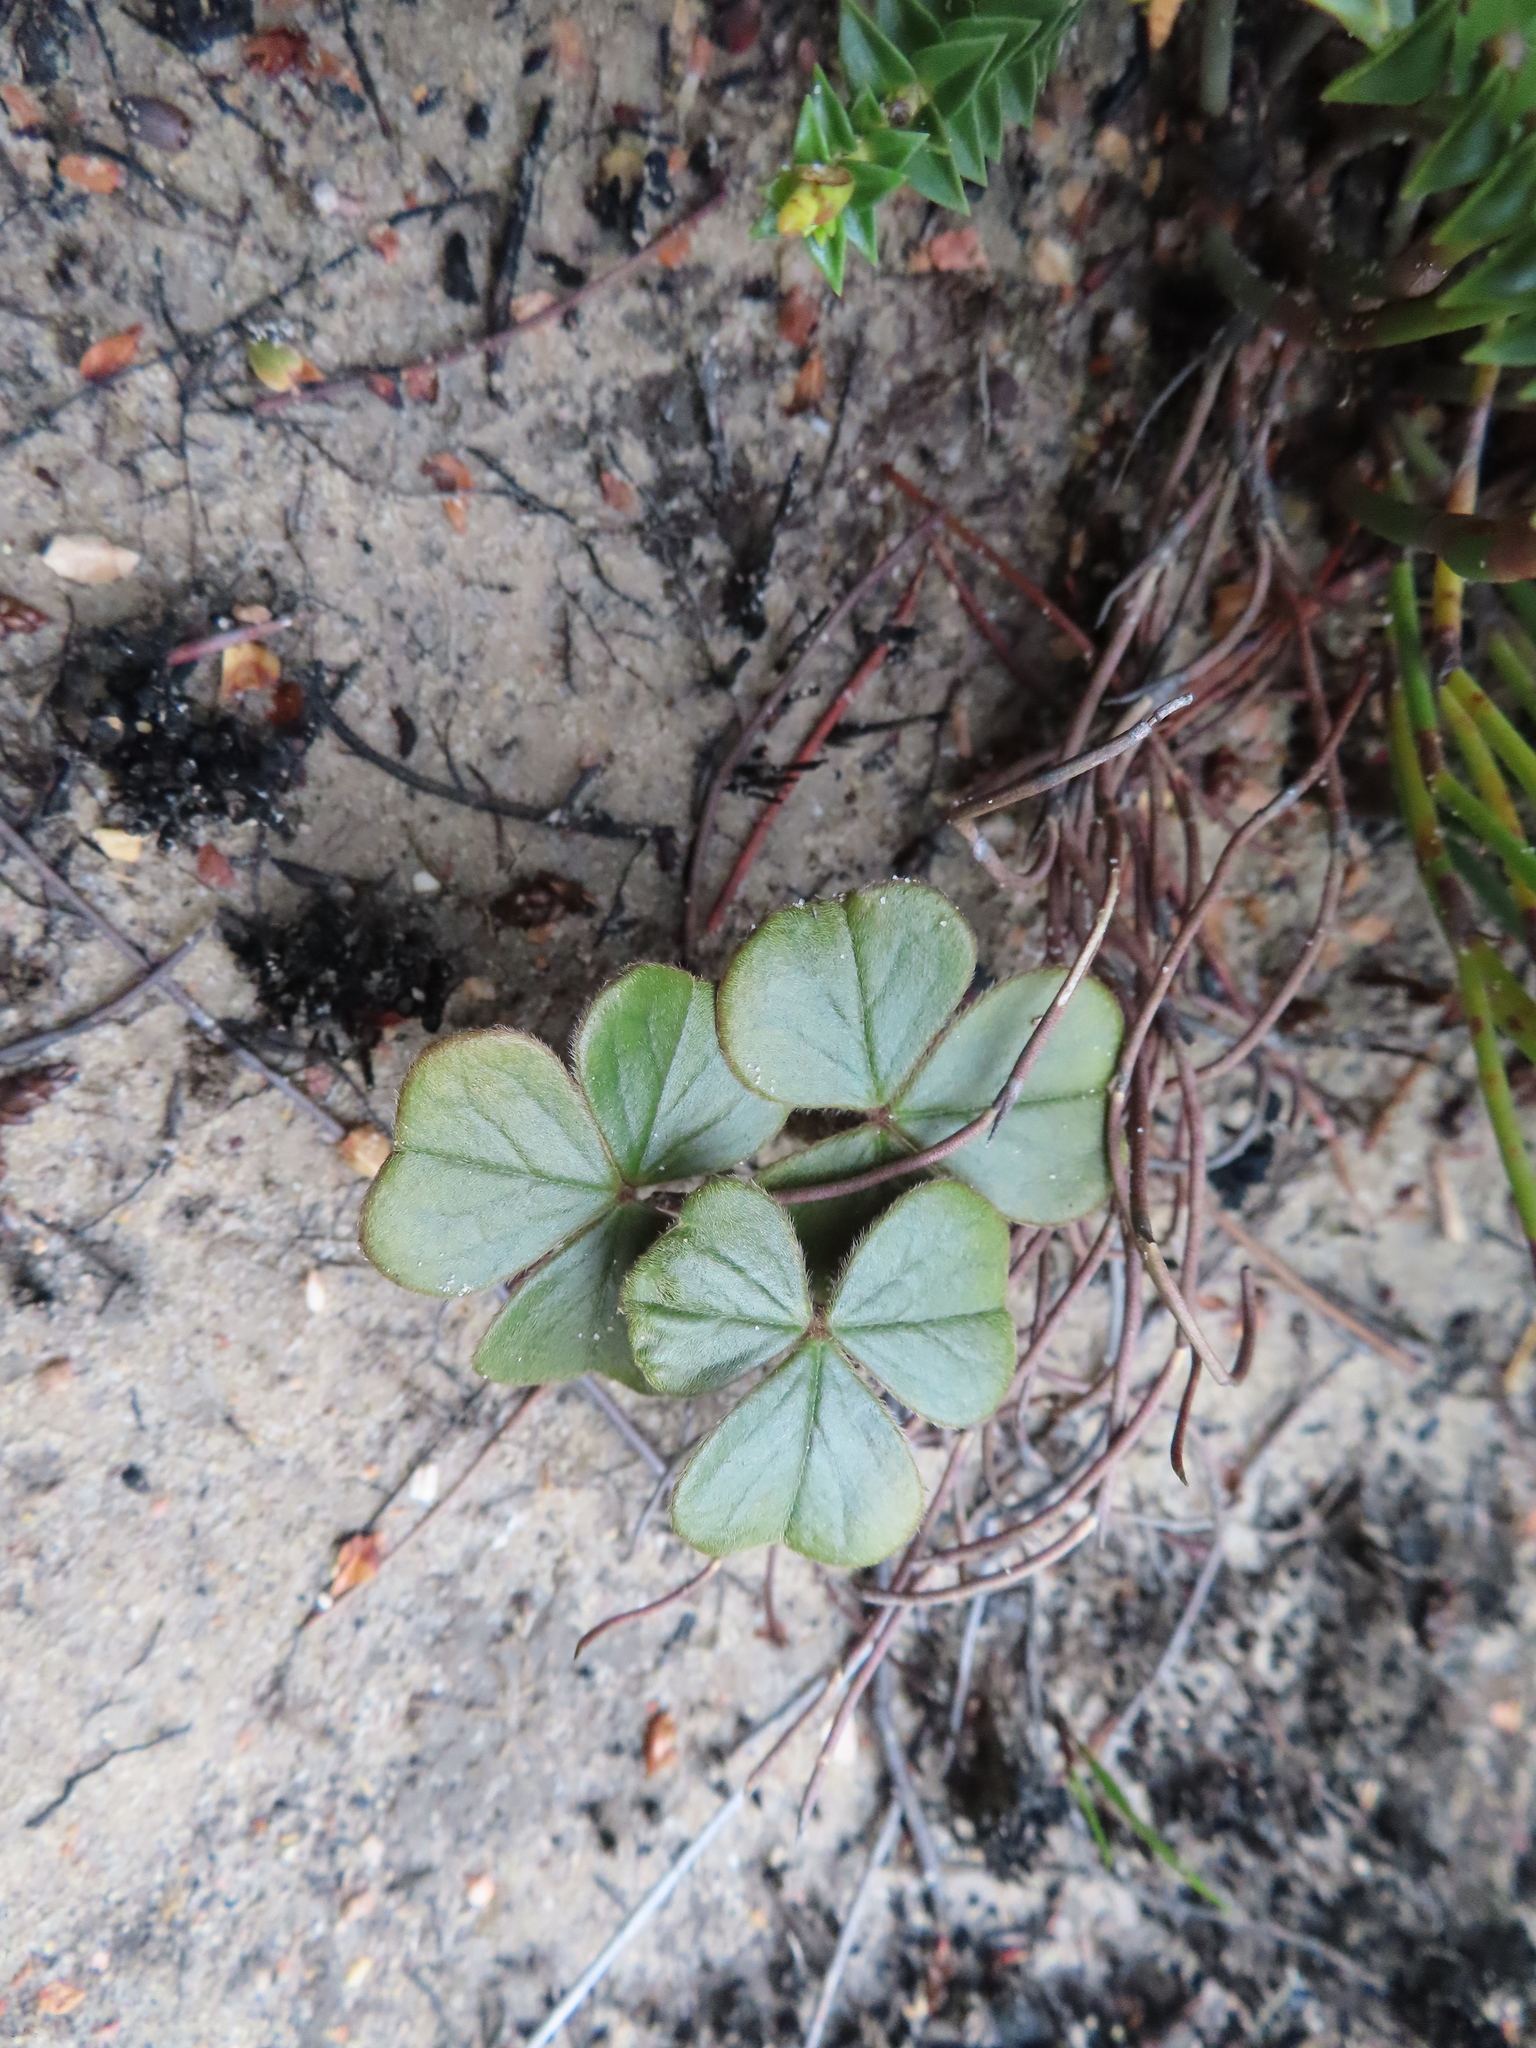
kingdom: Plantae
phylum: Tracheophyta
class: Magnoliopsida
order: Oxalidales
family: Oxalidaceae
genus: Oxalis
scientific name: Oxalis truncatula
